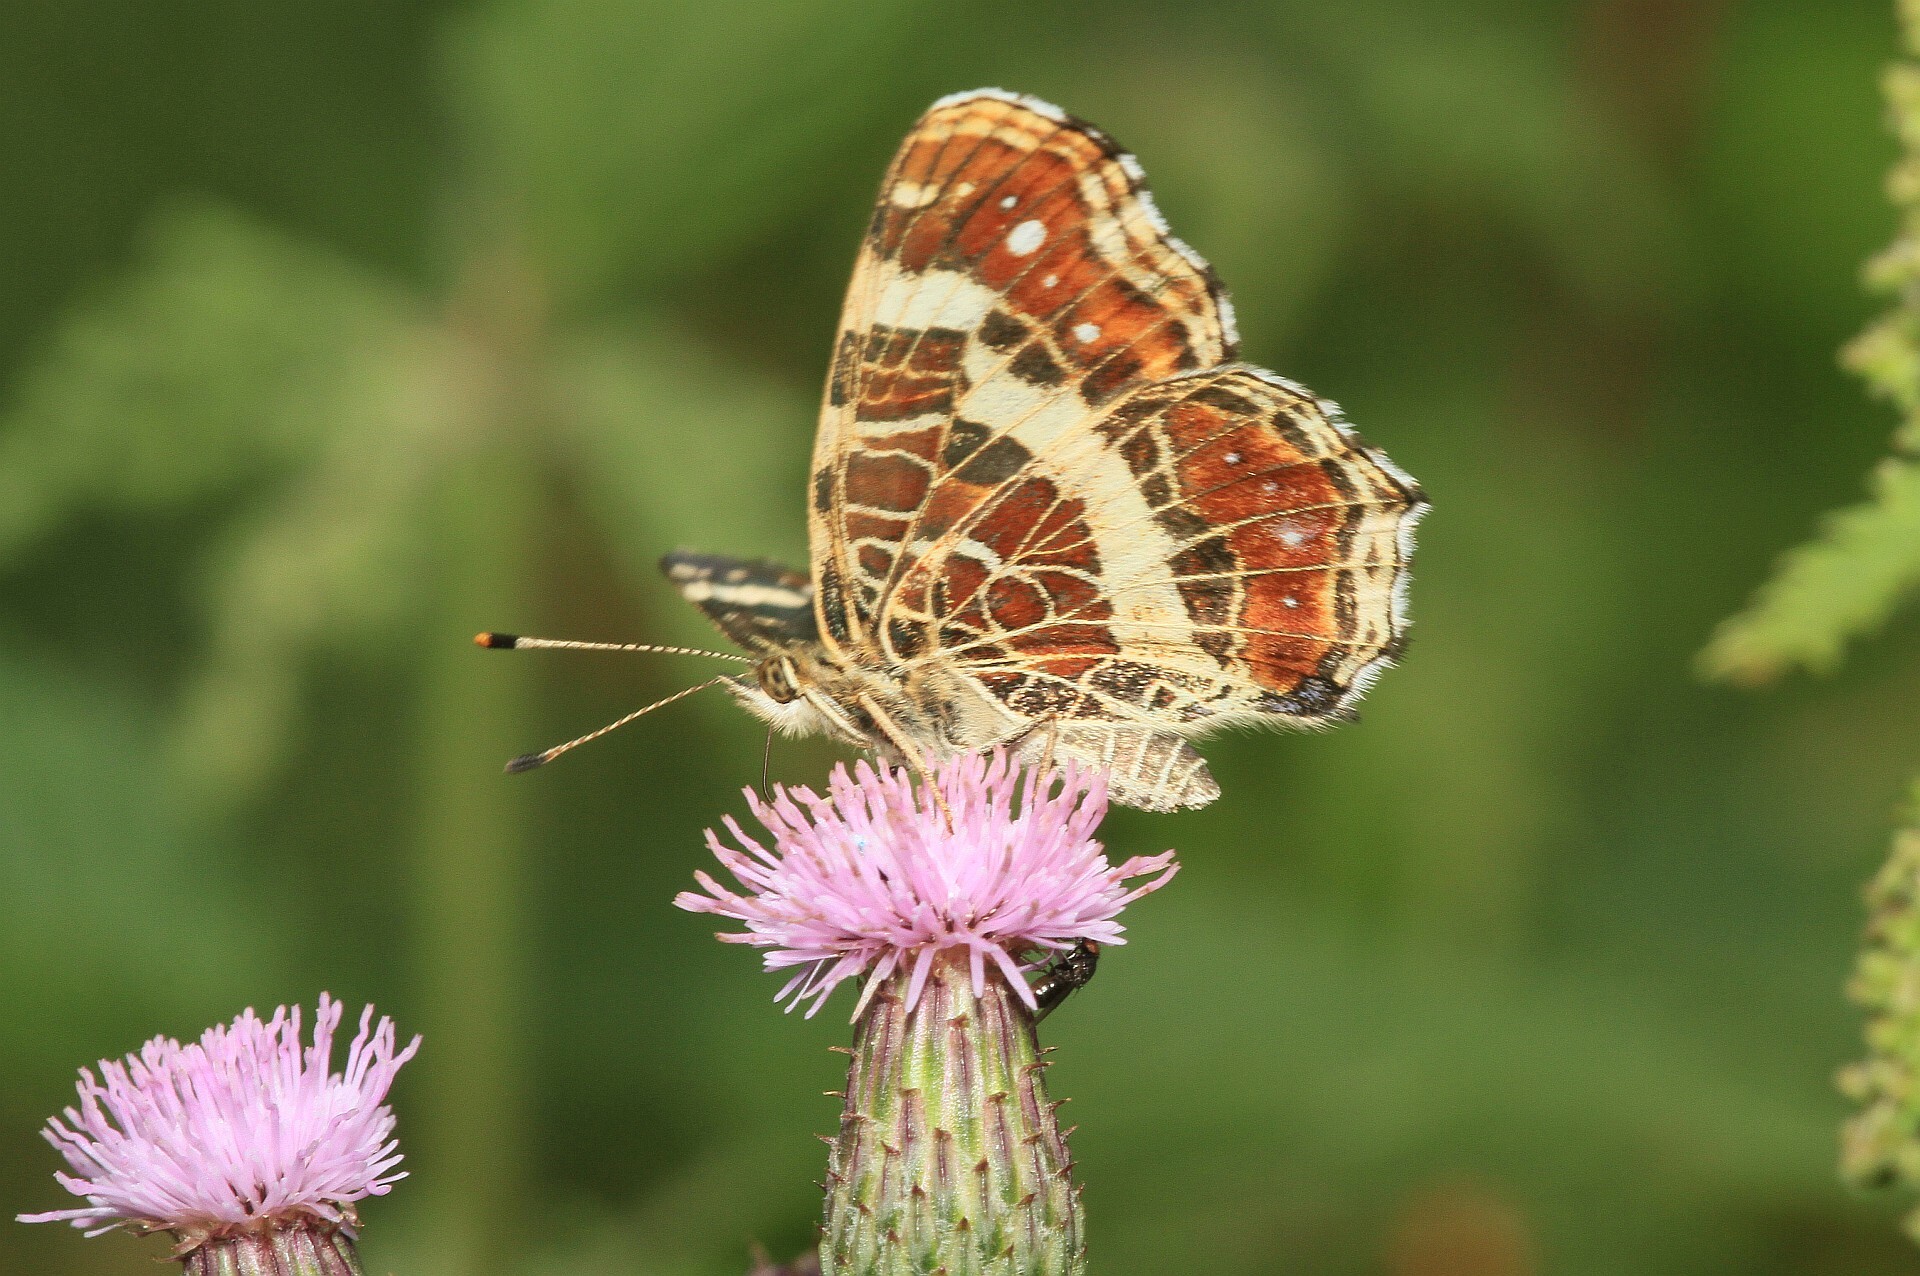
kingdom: Animalia
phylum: Arthropoda
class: Insecta
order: Lepidoptera
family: Nymphalidae
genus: Araschnia
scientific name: Araschnia levana
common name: Map butterfly
